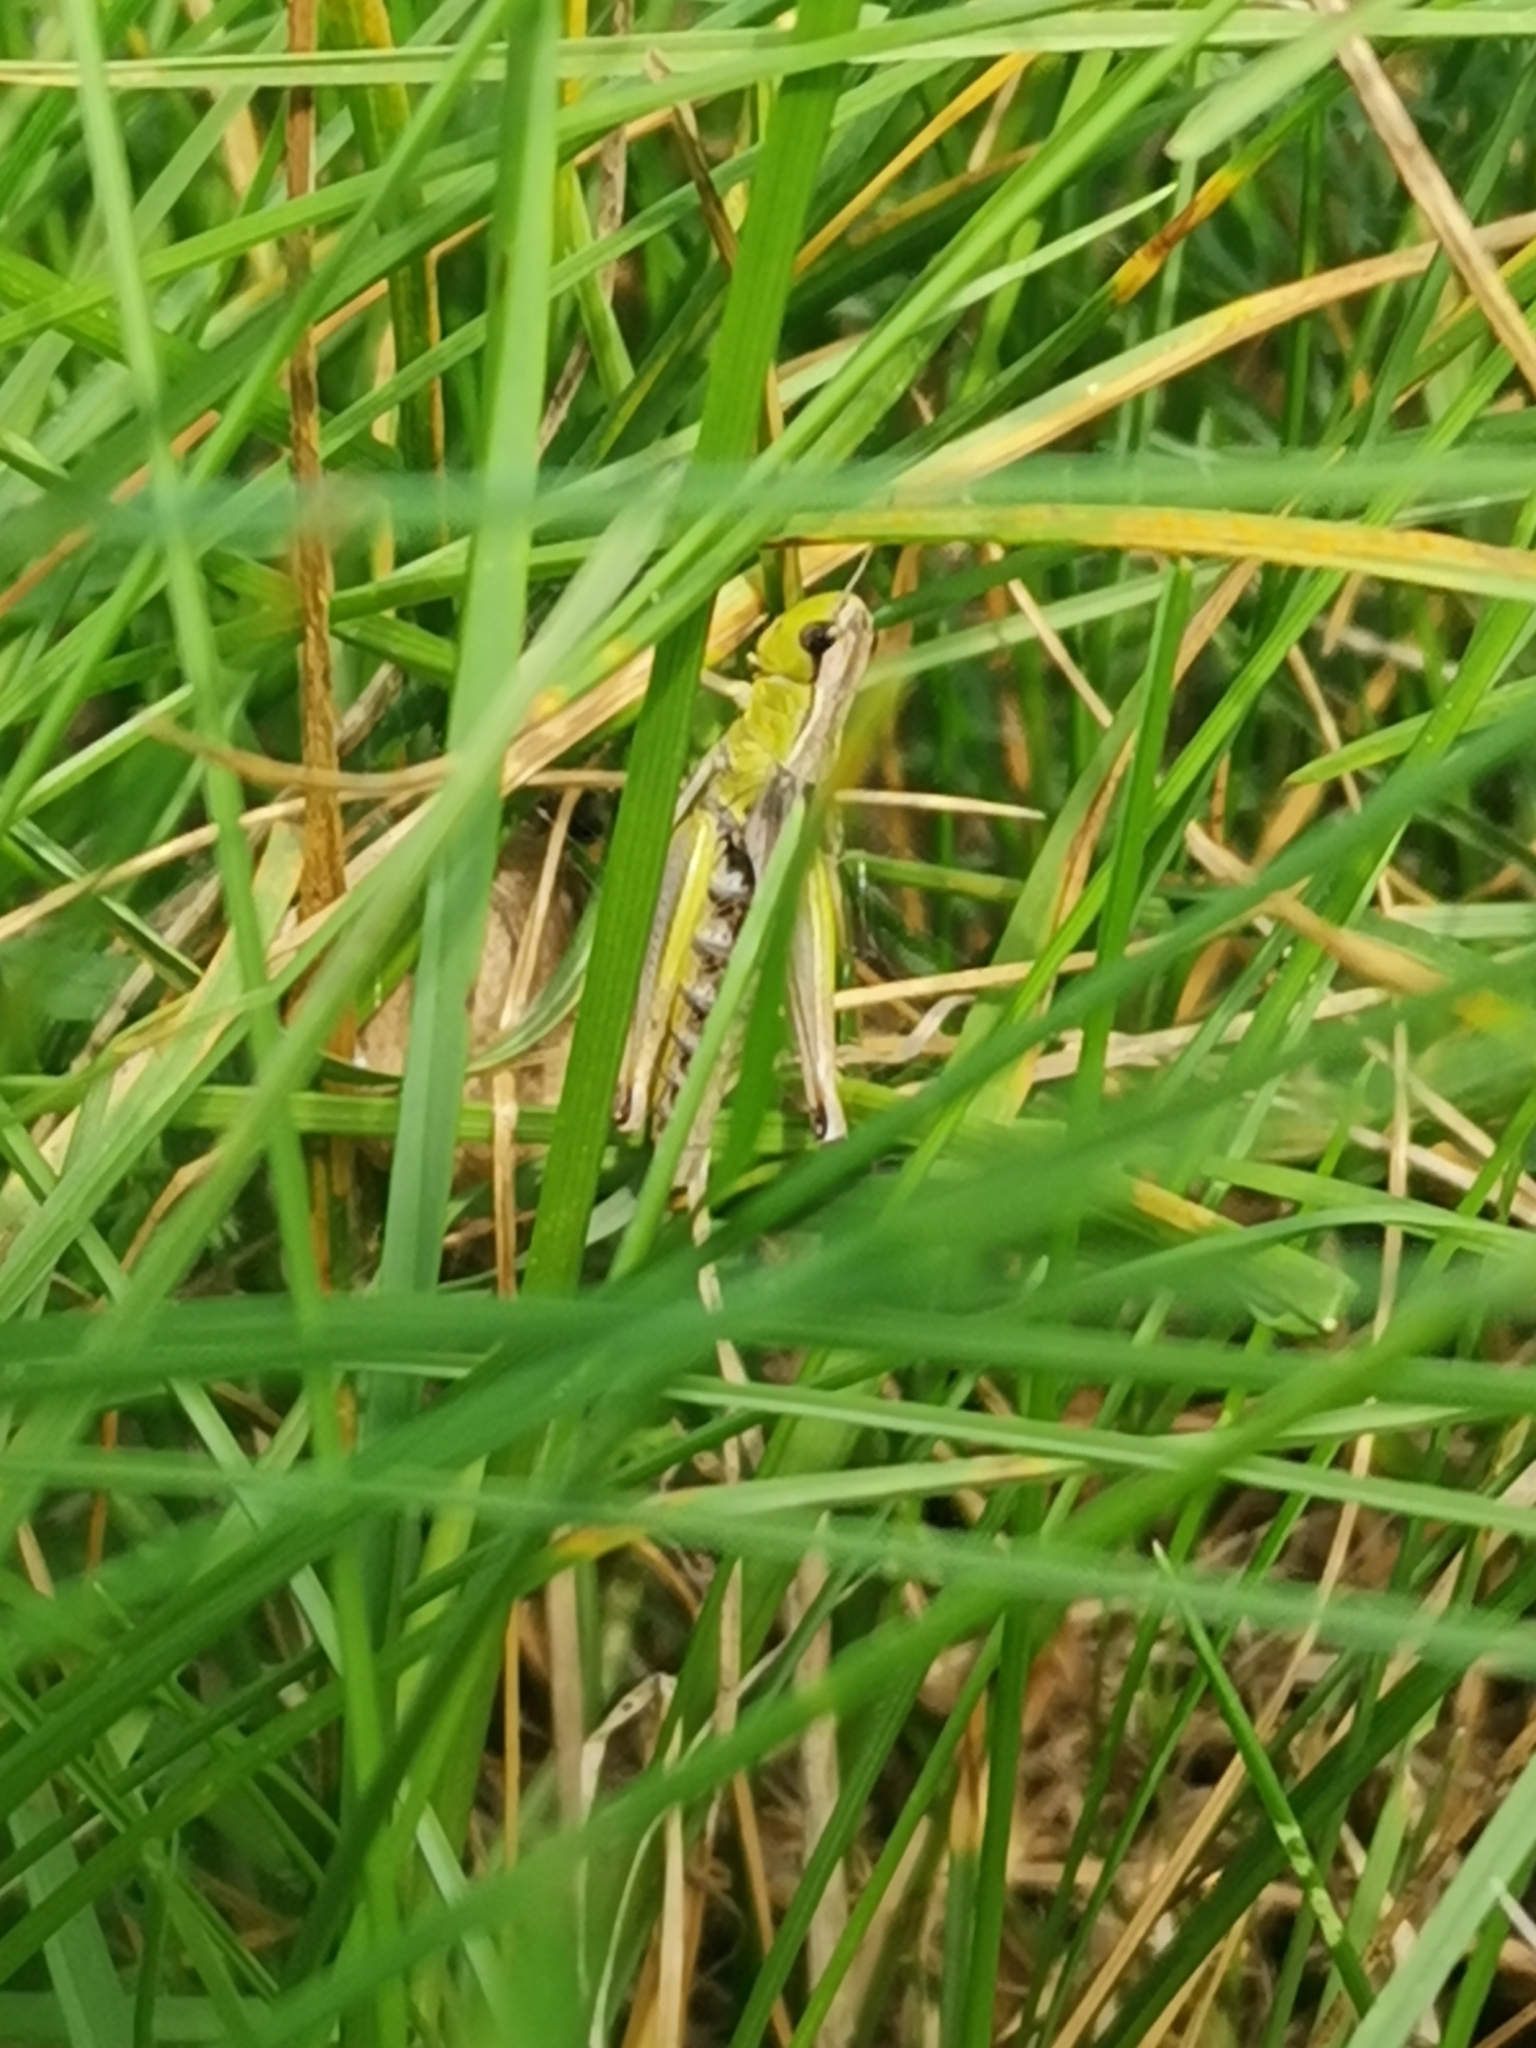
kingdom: Animalia
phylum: Arthropoda
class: Insecta
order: Orthoptera
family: Acrididae
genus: Pseudochorthippus
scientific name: Pseudochorthippus parallelus
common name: Meadow grasshopper
